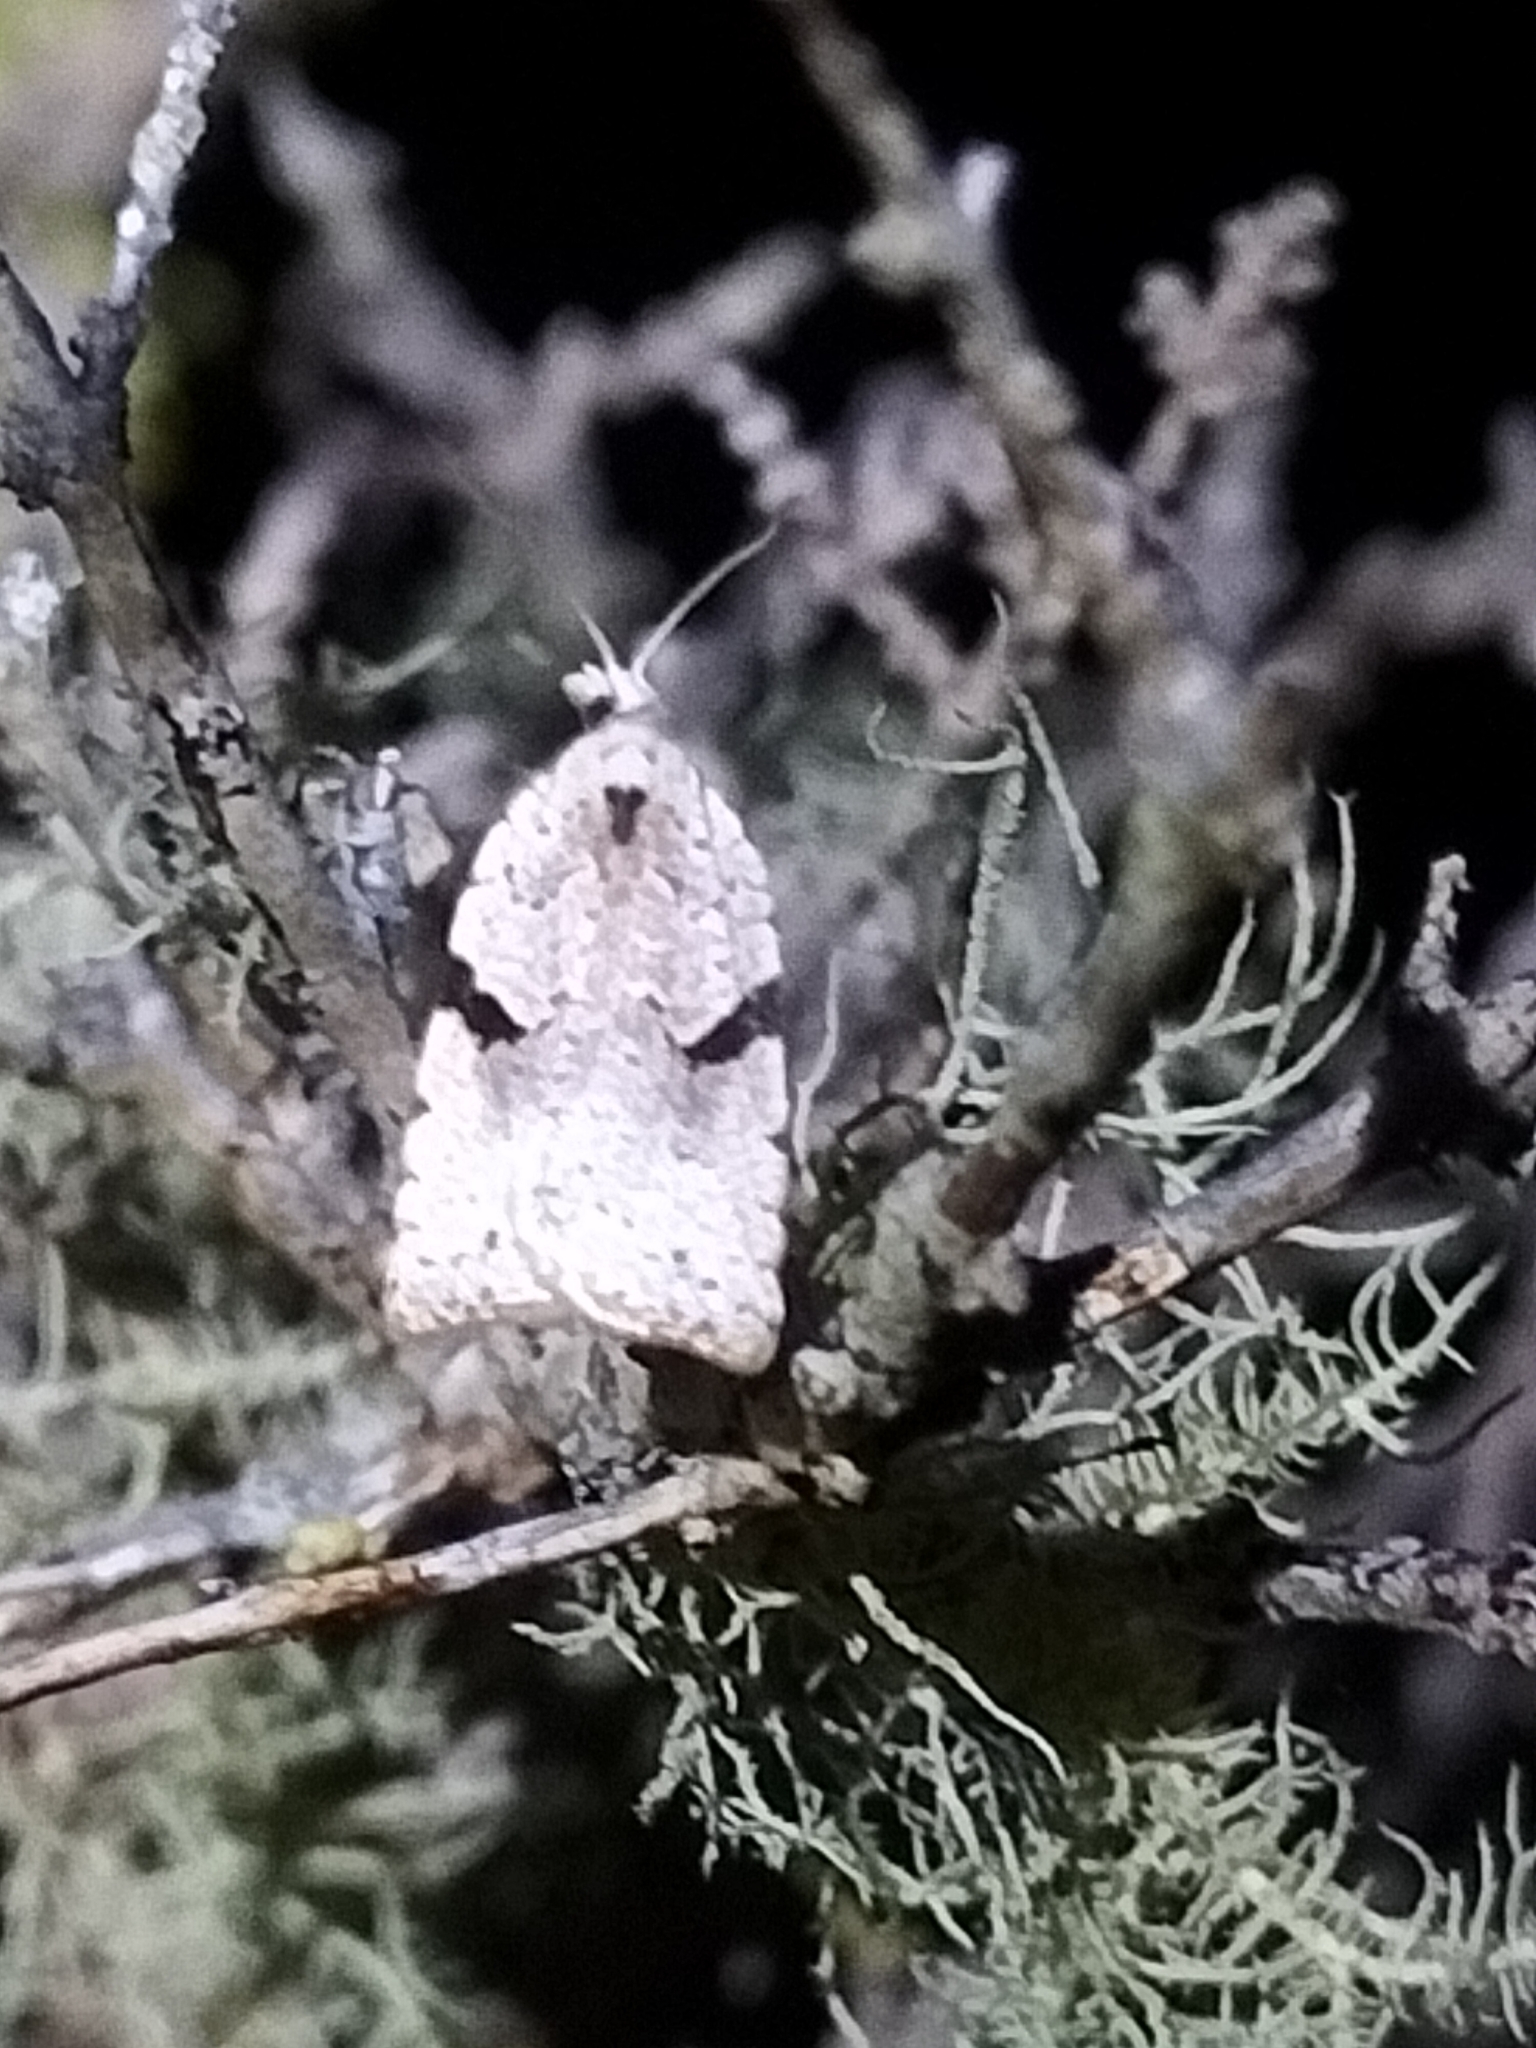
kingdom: Animalia
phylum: Arthropoda
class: Insecta
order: Lepidoptera
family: Tortricidae
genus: Leucotenes
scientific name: Leucotenes coprosmae
